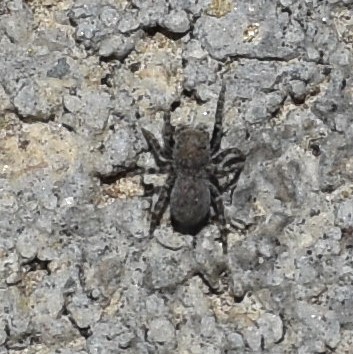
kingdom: Animalia
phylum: Arthropoda
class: Arachnida
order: Araneae
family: Salticidae
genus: Talavera
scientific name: Talavera minuta
